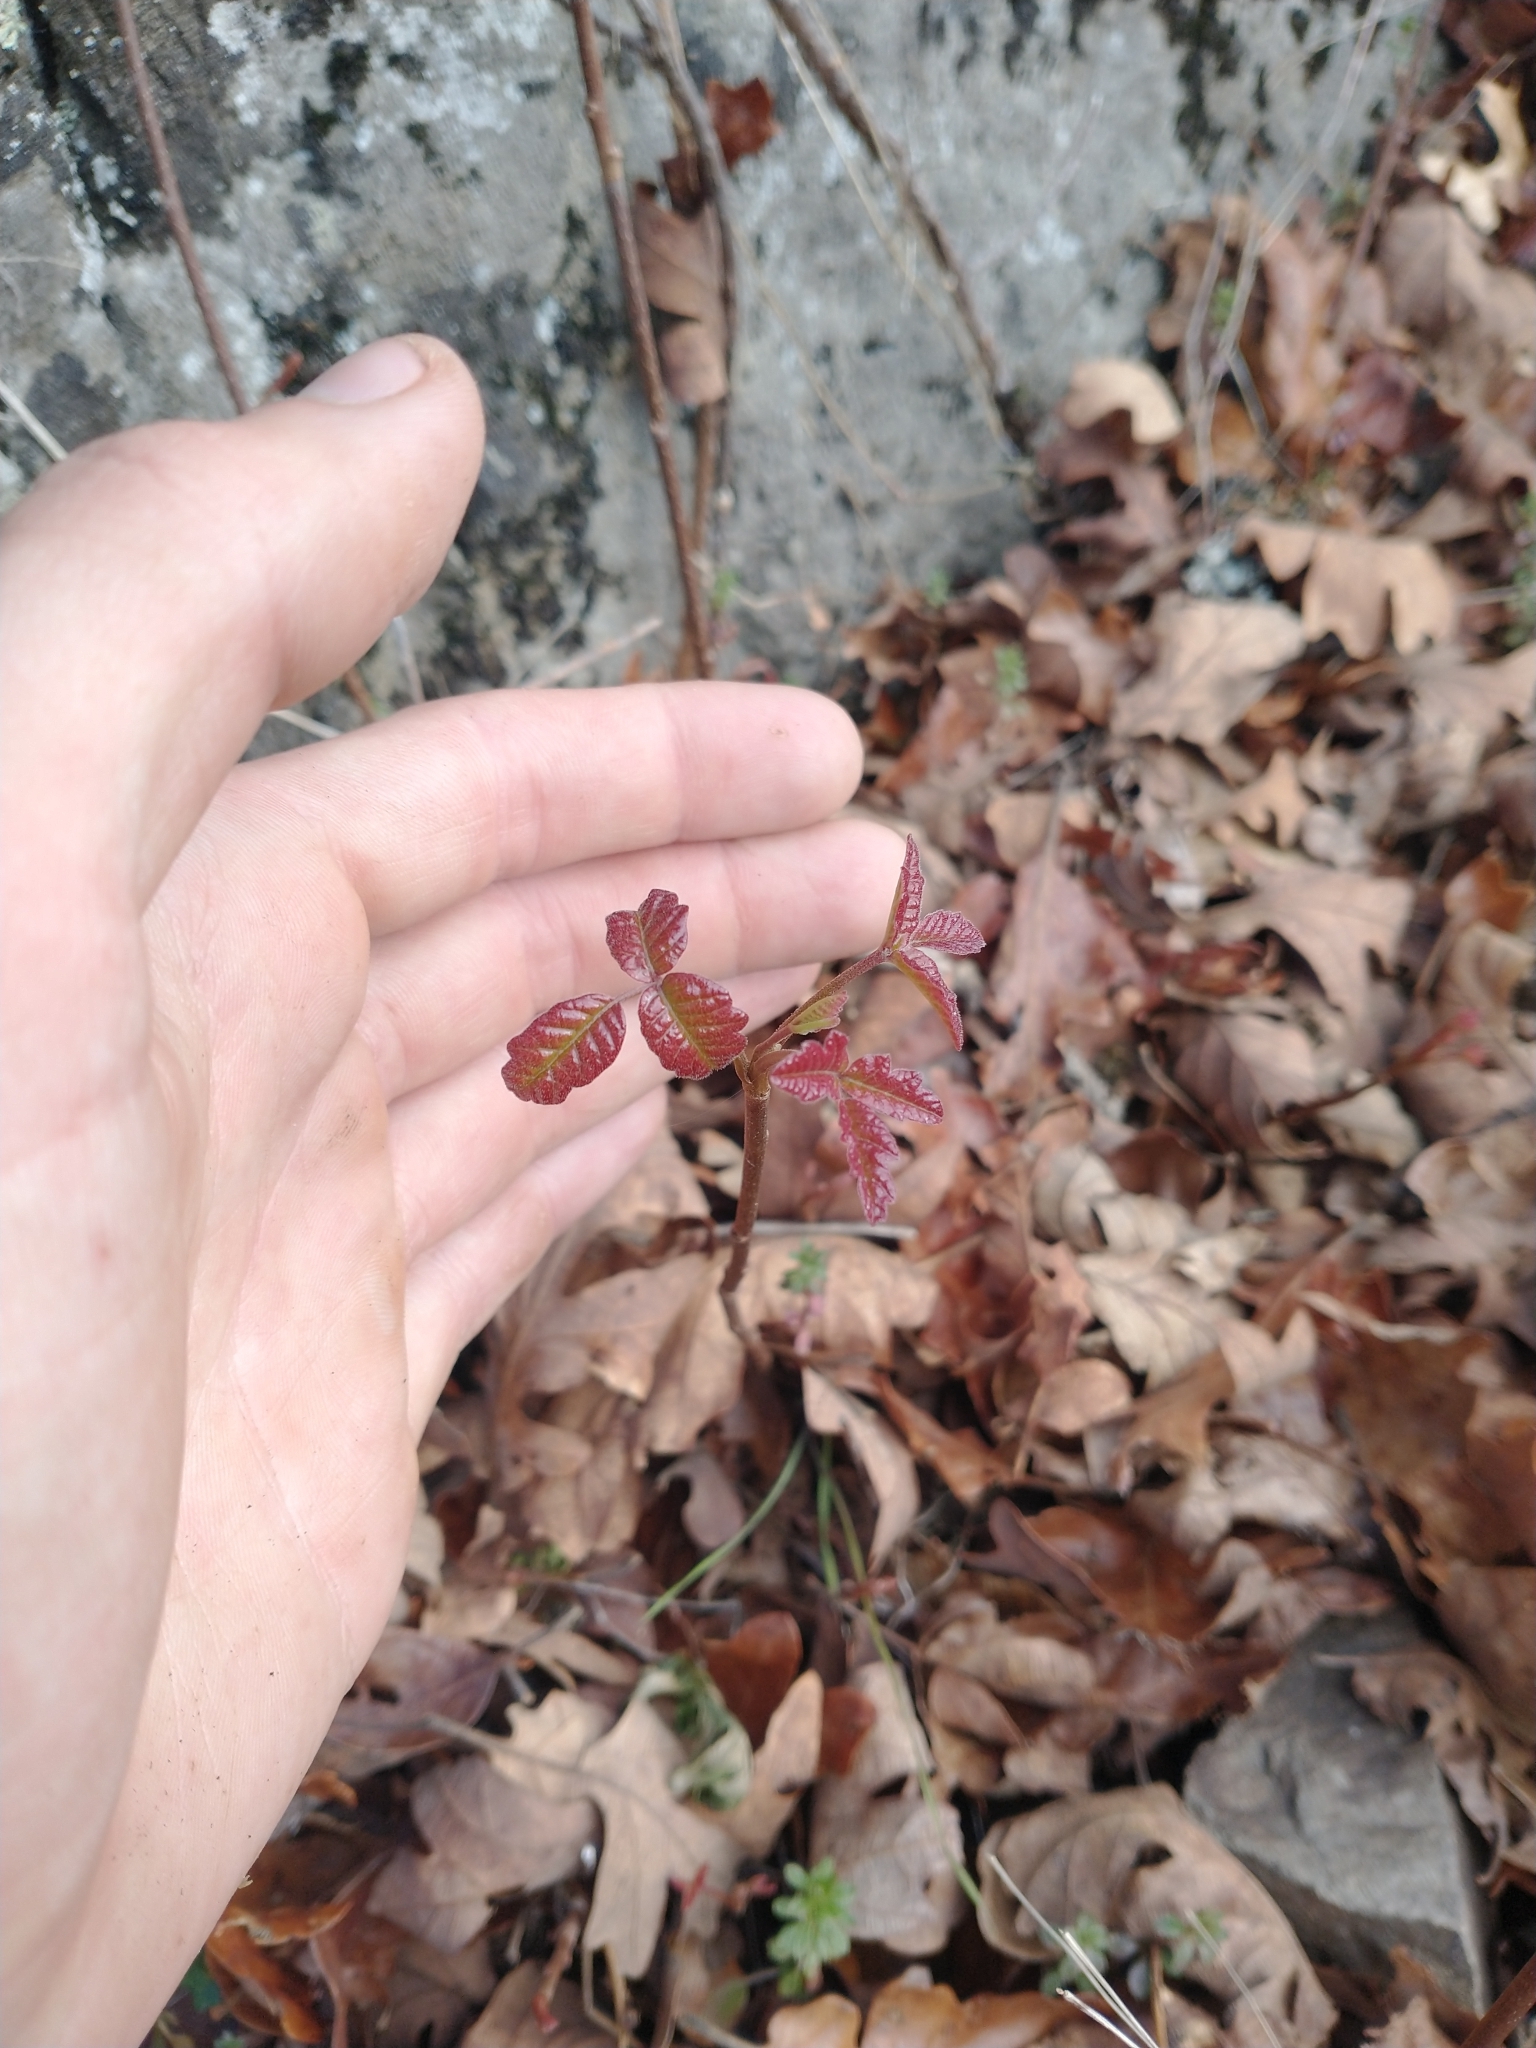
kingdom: Plantae
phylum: Tracheophyta
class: Magnoliopsida
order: Sapindales
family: Anacardiaceae
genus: Toxicodendron
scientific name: Toxicodendron diversilobum
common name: Pacific poison-oak
